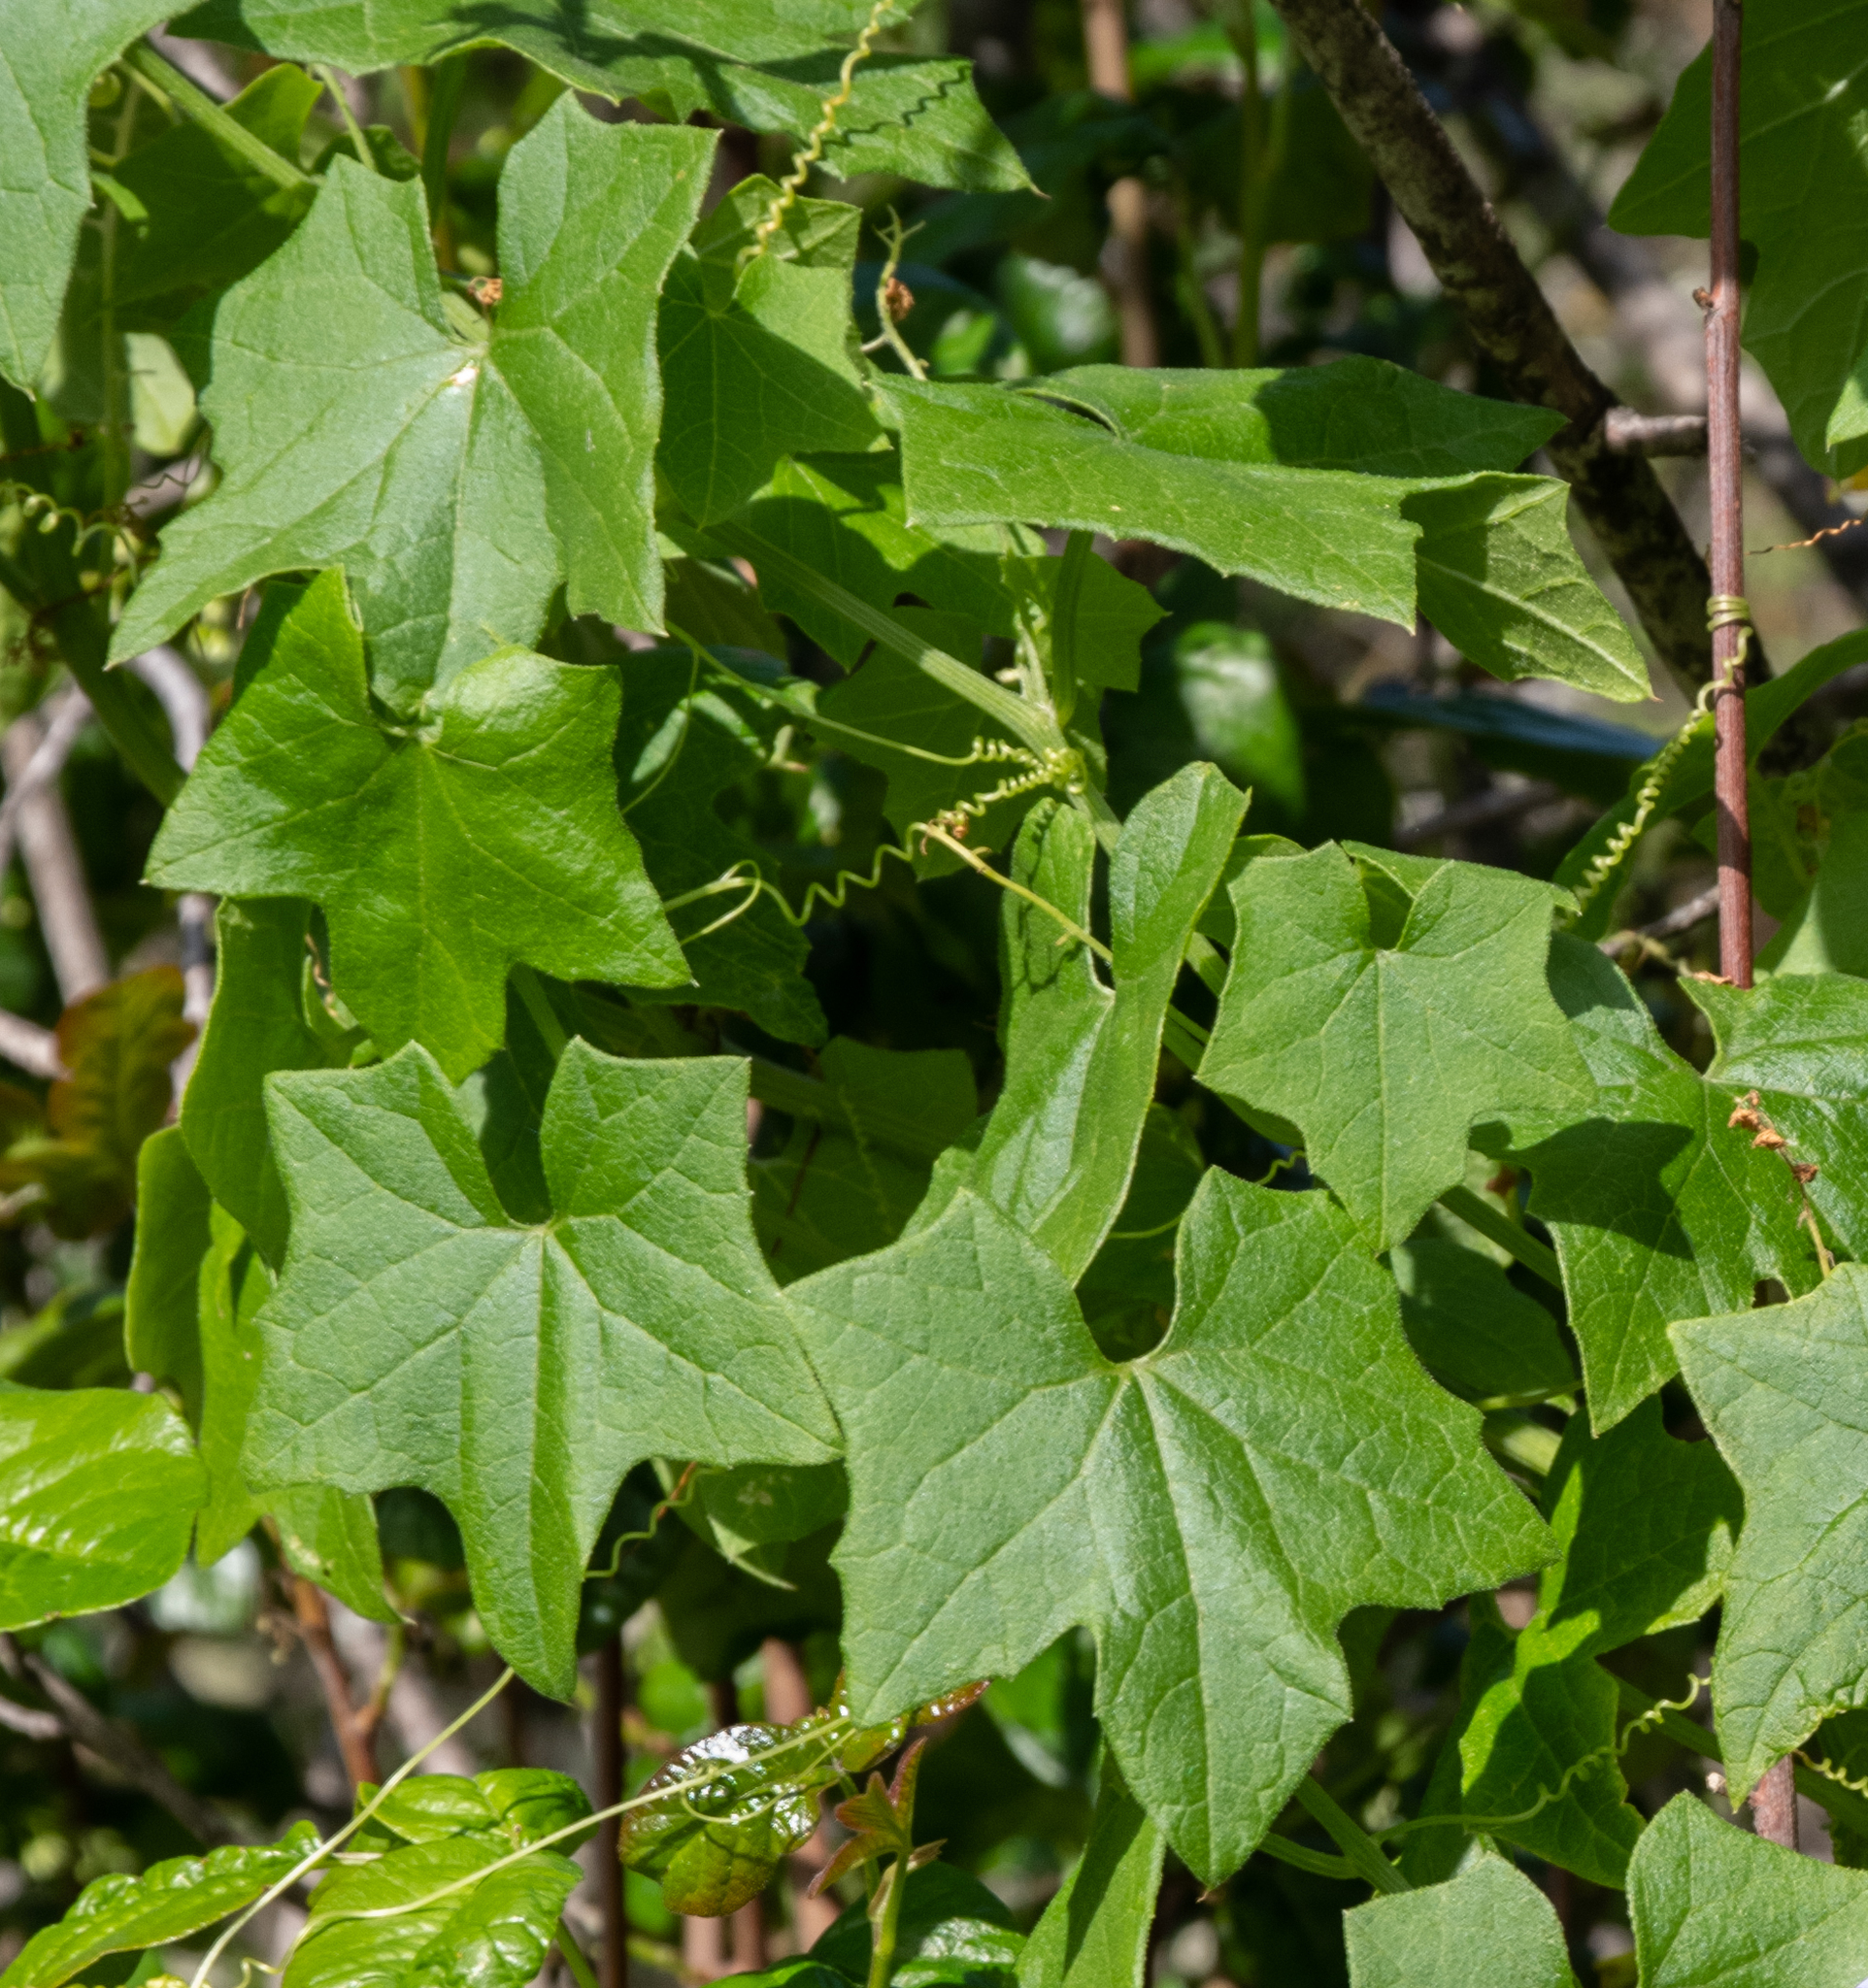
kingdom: Plantae
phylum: Tracheophyta
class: Magnoliopsida
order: Cucurbitales
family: Cucurbitaceae
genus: Marah
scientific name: Marah fabacea
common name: California manroot
